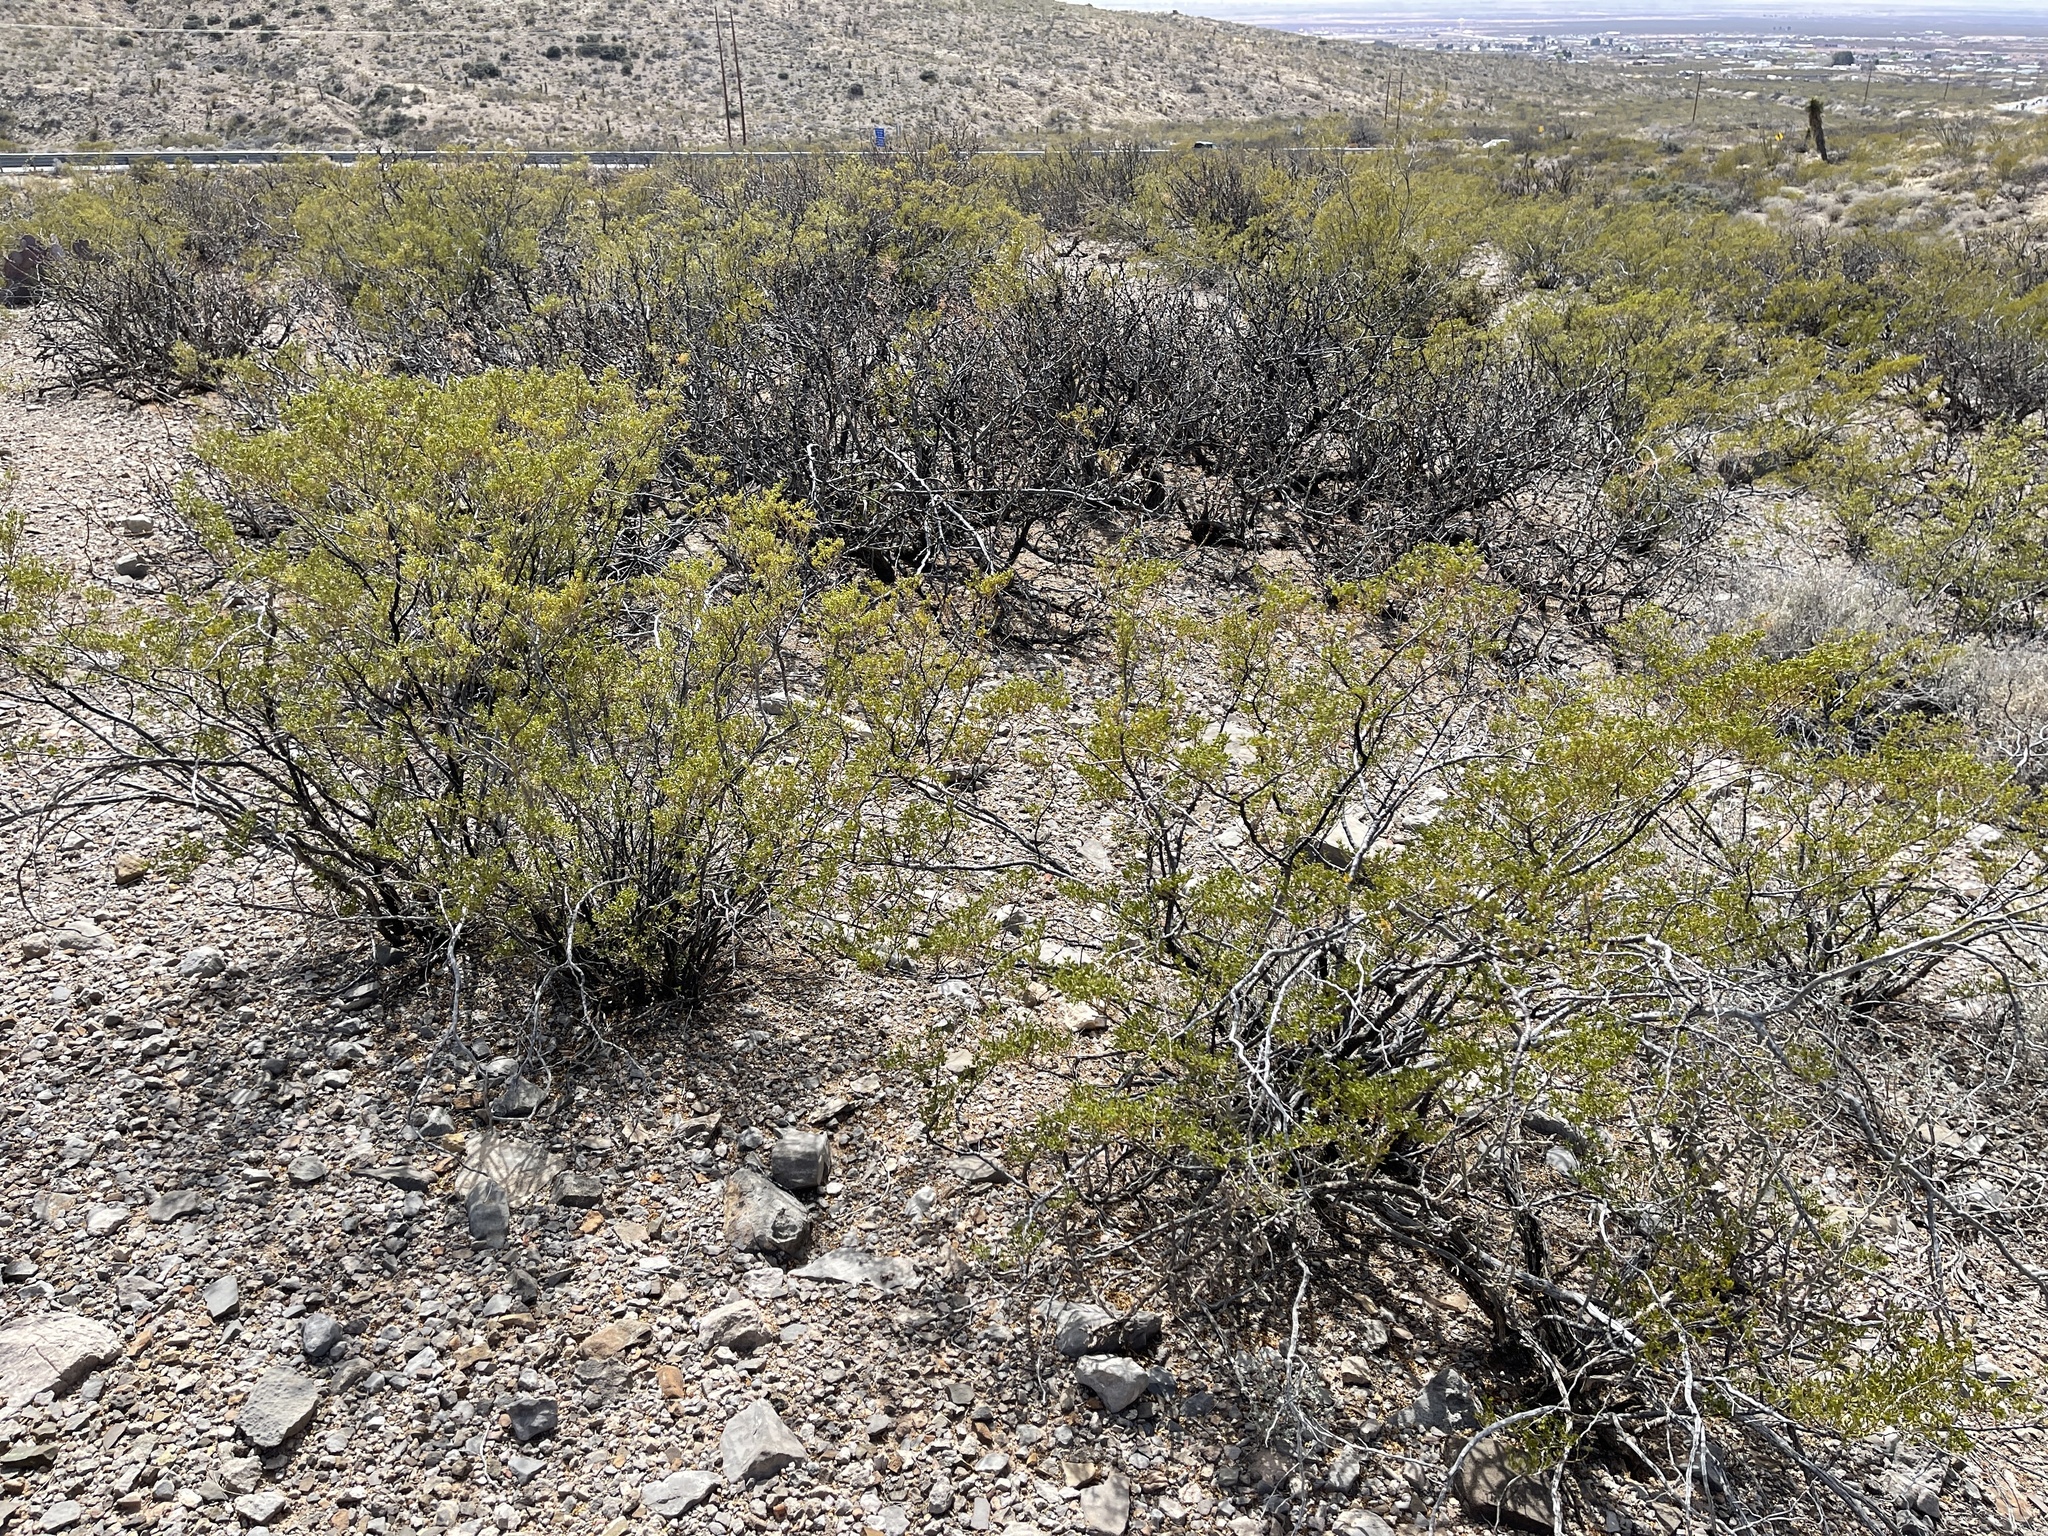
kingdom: Plantae
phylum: Tracheophyta
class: Magnoliopsida
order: Zygophyllales
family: Zygophyllaceae
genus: Larrea
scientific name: Larrea tridentata
